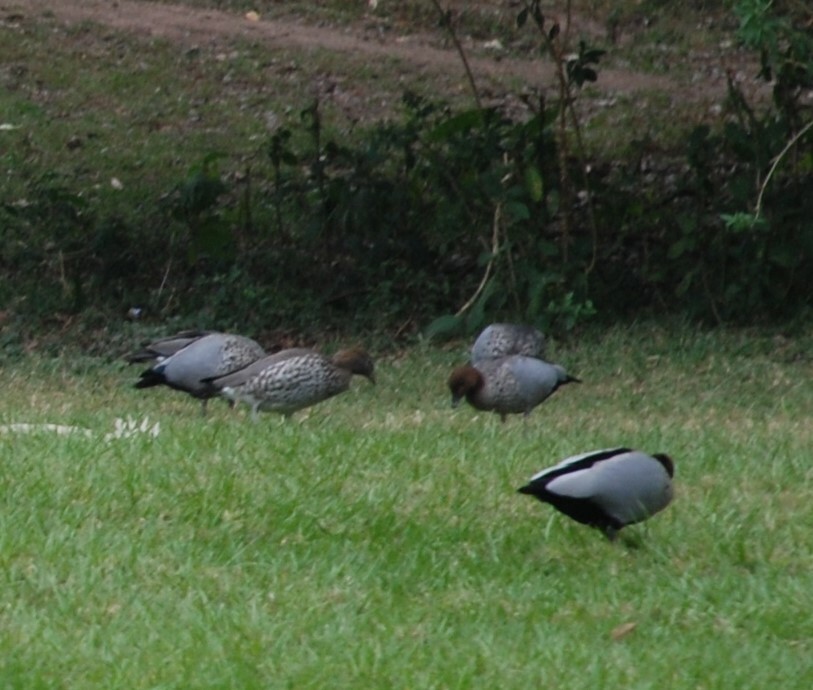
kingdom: Animalia
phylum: Chordata
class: Aves
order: Anseriformes
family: Anatidae
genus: Chenonetta
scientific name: Chenonetta jubata
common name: Maned duck
